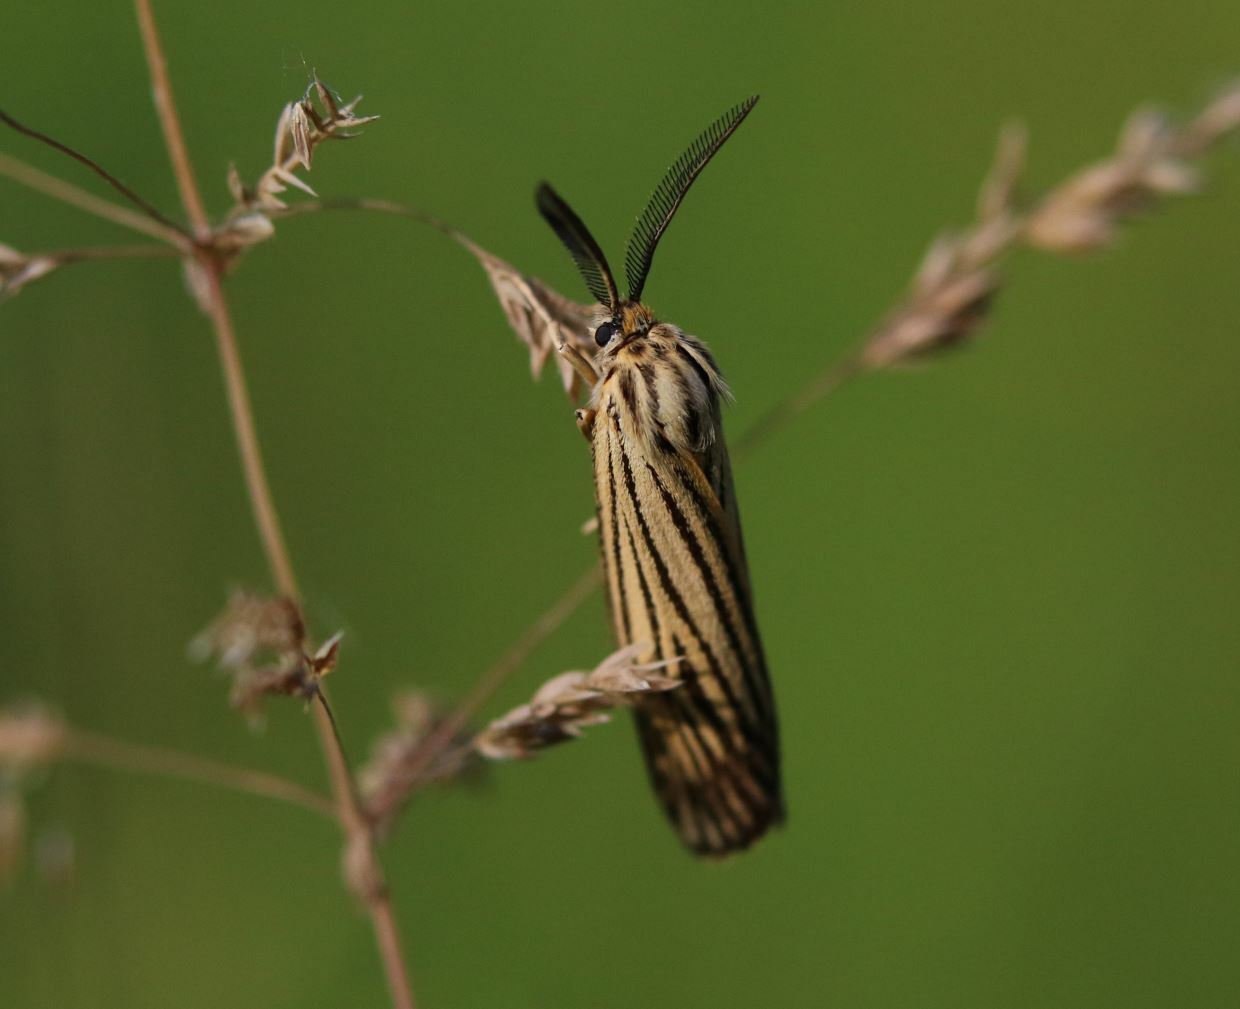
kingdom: Animalia
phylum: Arthropoda
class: Insecta
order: Lepidoptera
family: Erebidae
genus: Coscinia
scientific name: Coscinia Spiris striata
